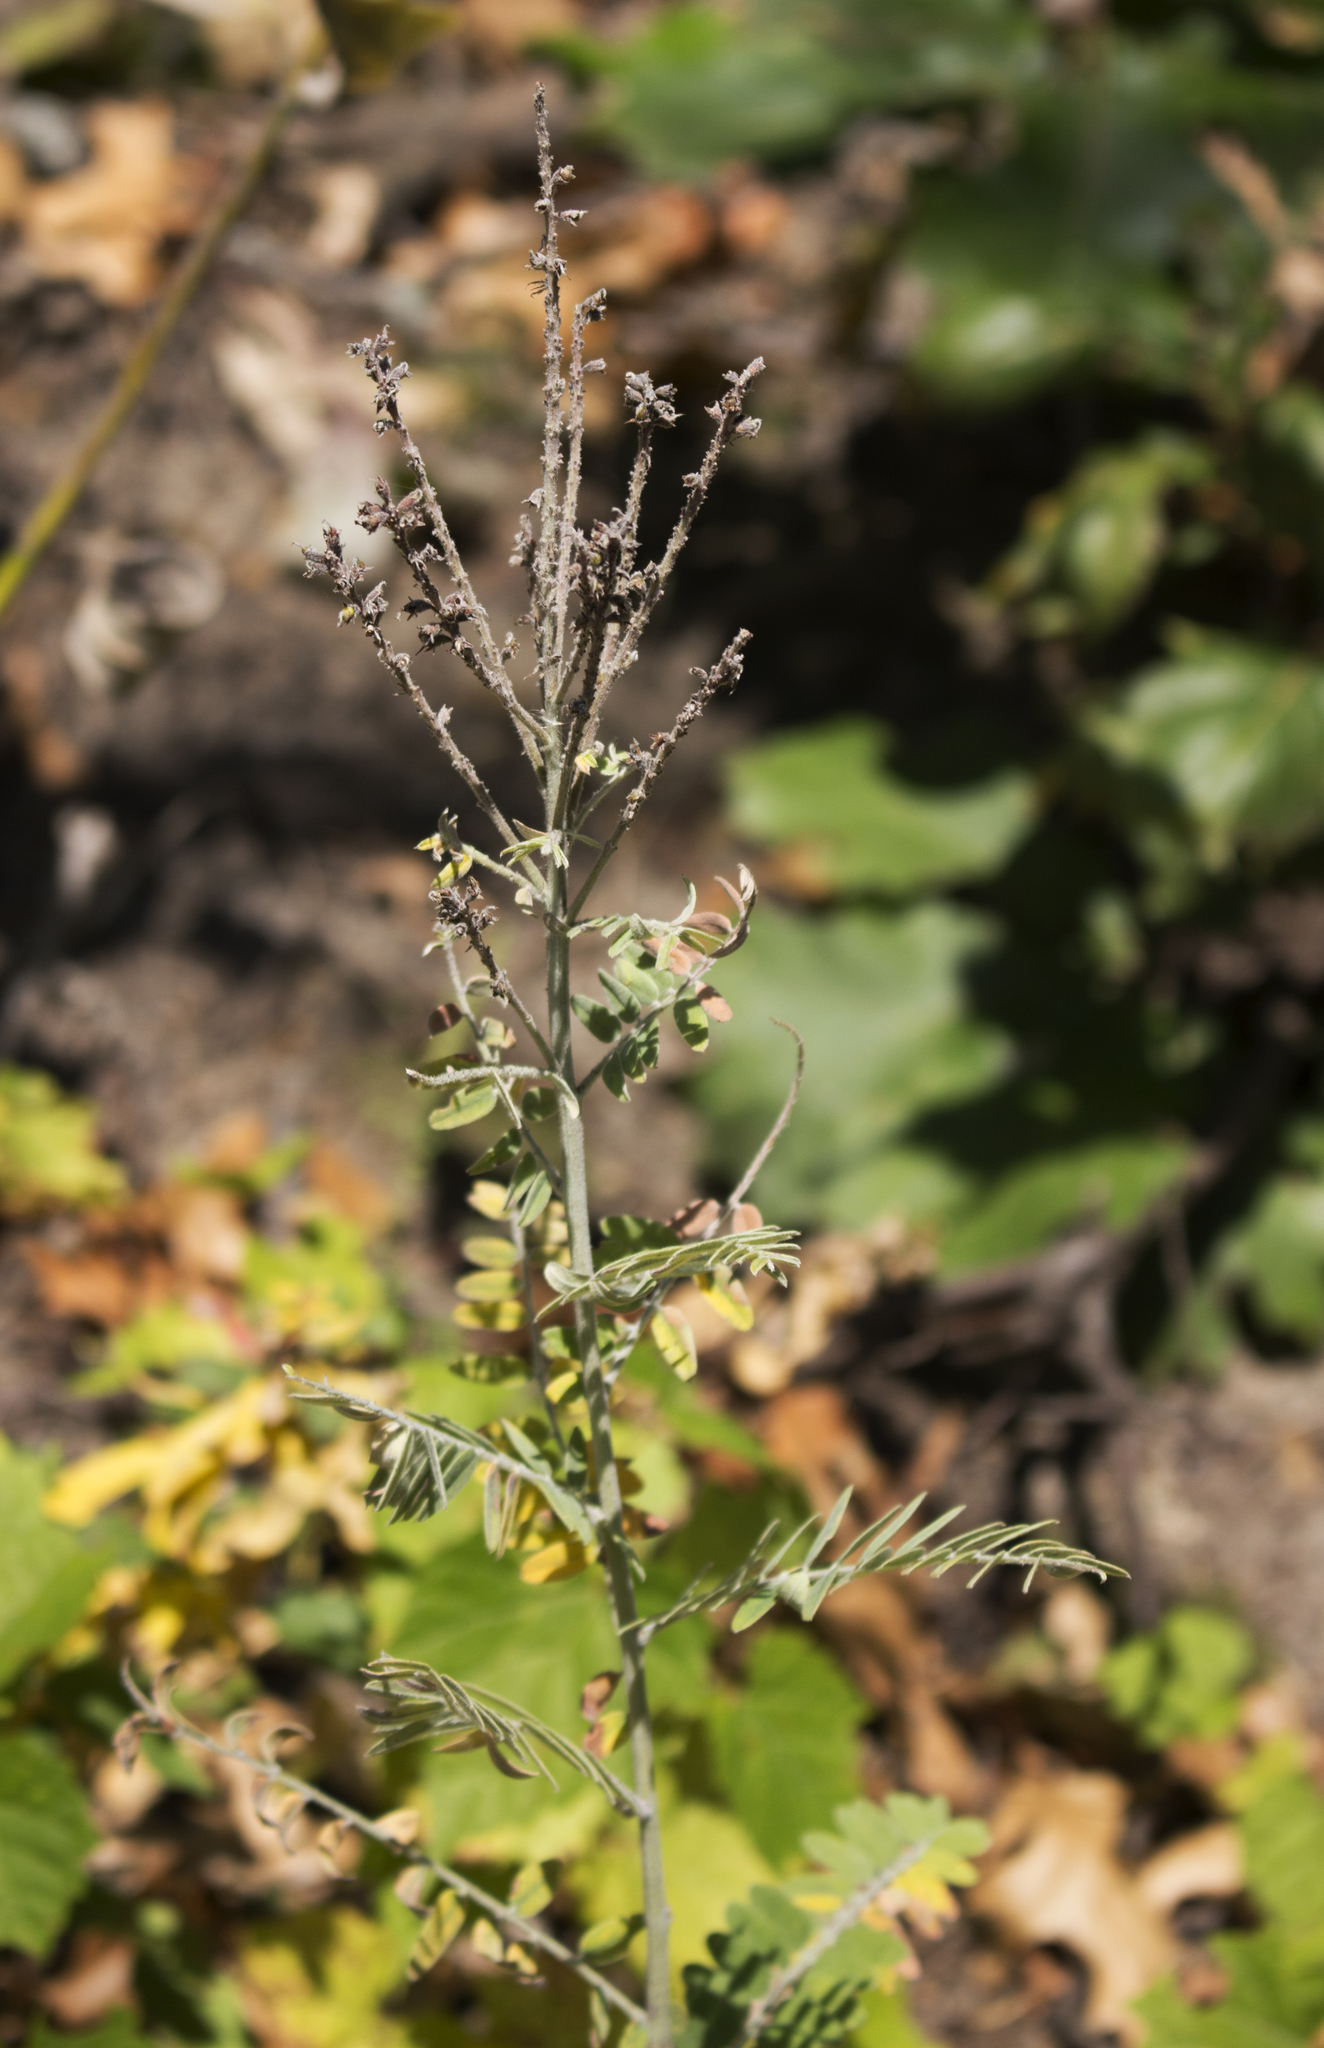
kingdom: Plantae
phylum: Tracheophyta
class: Magnoliopsida
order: Fabales
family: Fabaceae
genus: Amorpha
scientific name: Amorpha canescens
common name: Leadplant
